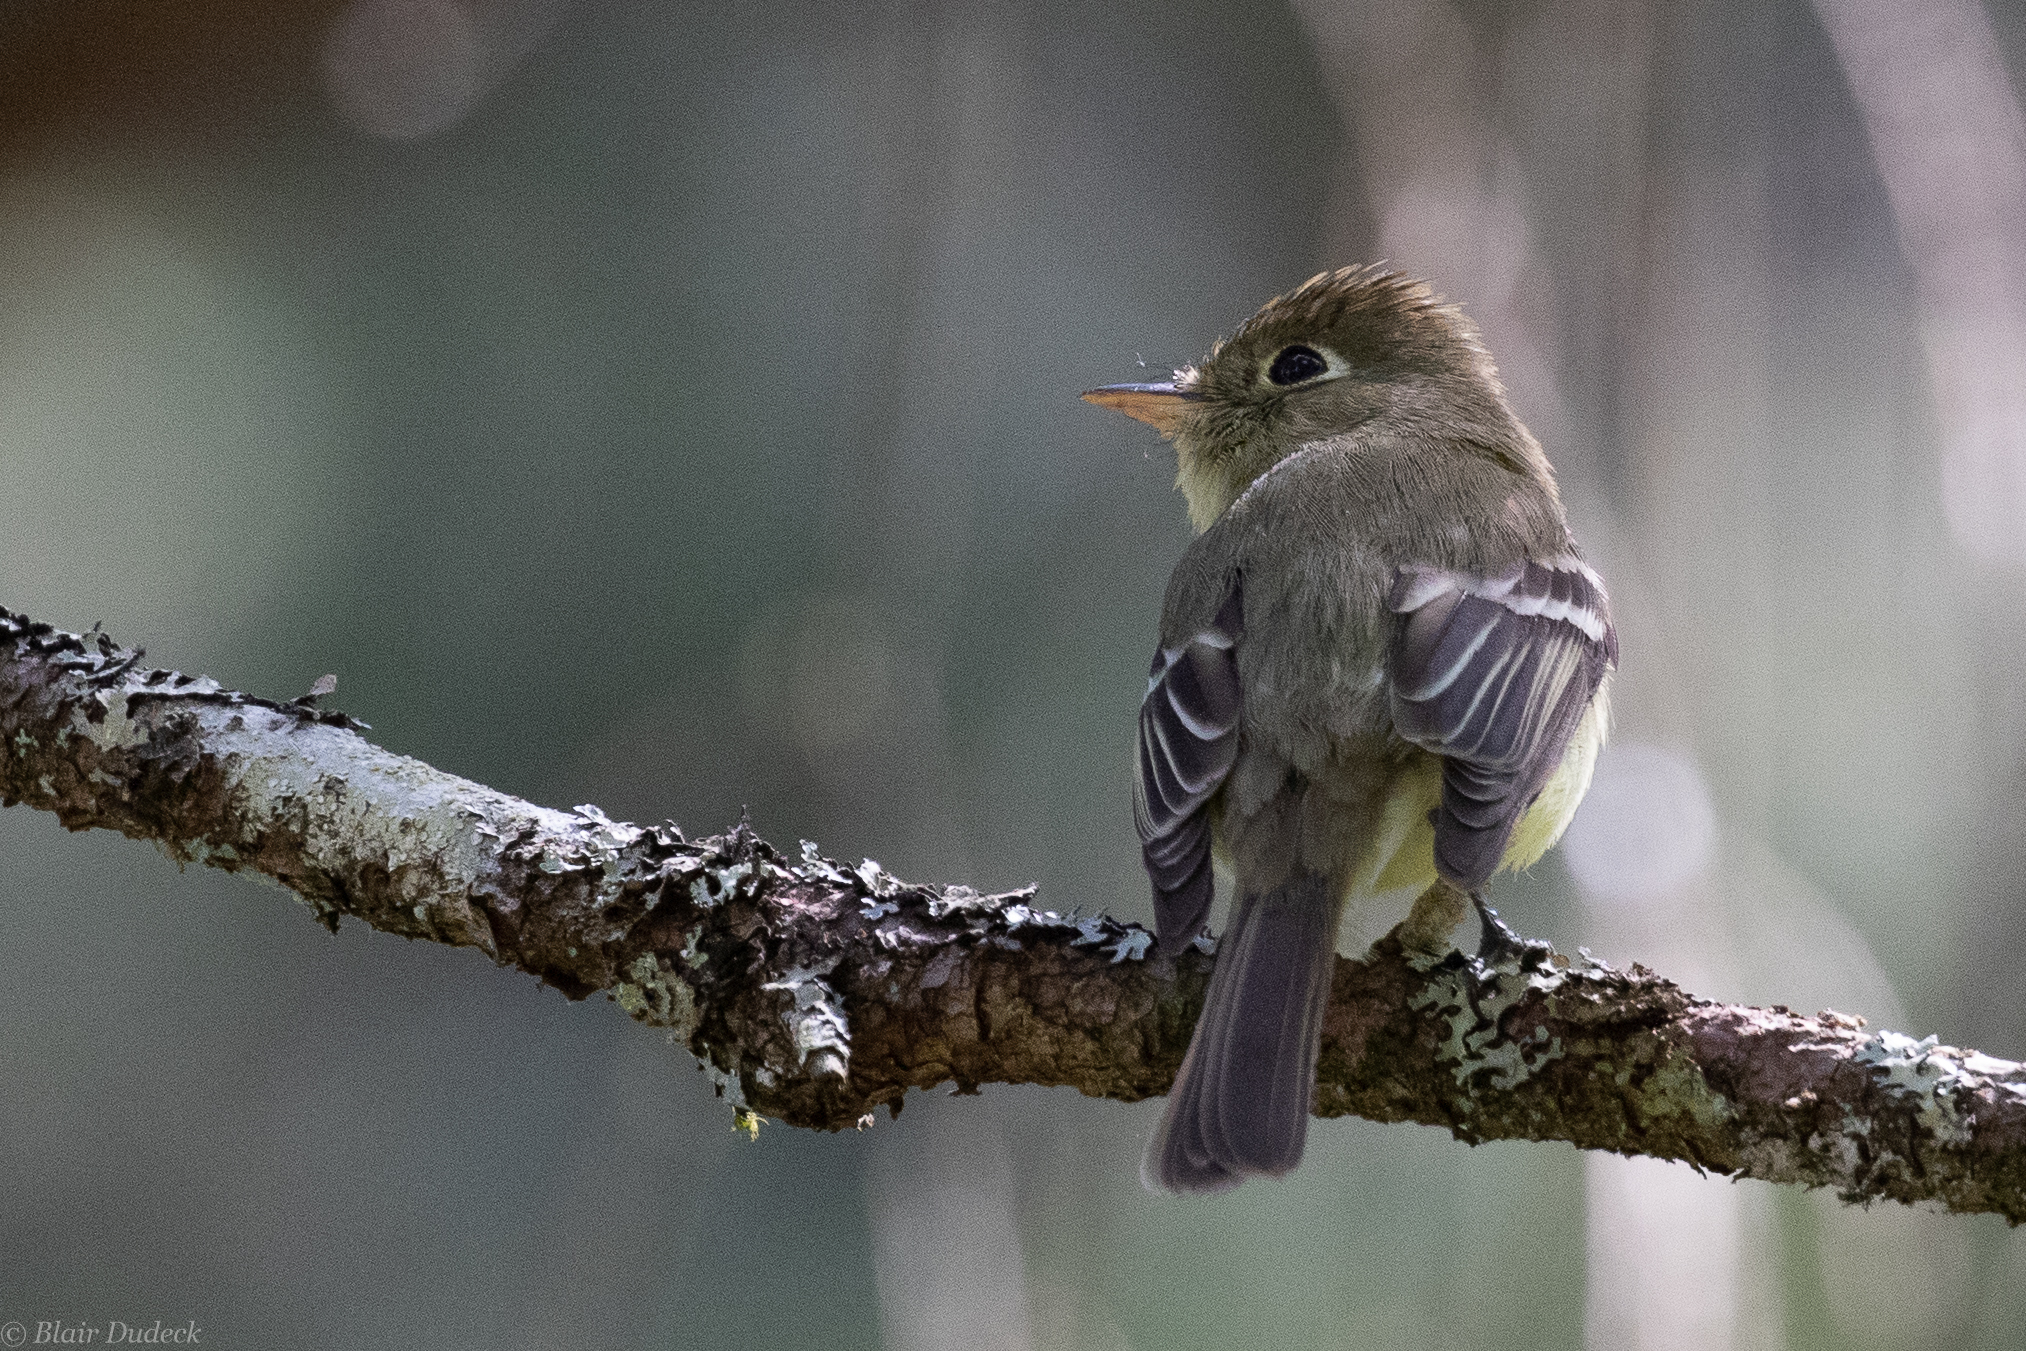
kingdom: Animalia
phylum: Chordata
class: Aves
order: Passeriformes
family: Tyrannidae
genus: Empidonax
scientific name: Empidonax difficilis
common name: Pacific-slope flycatcher
